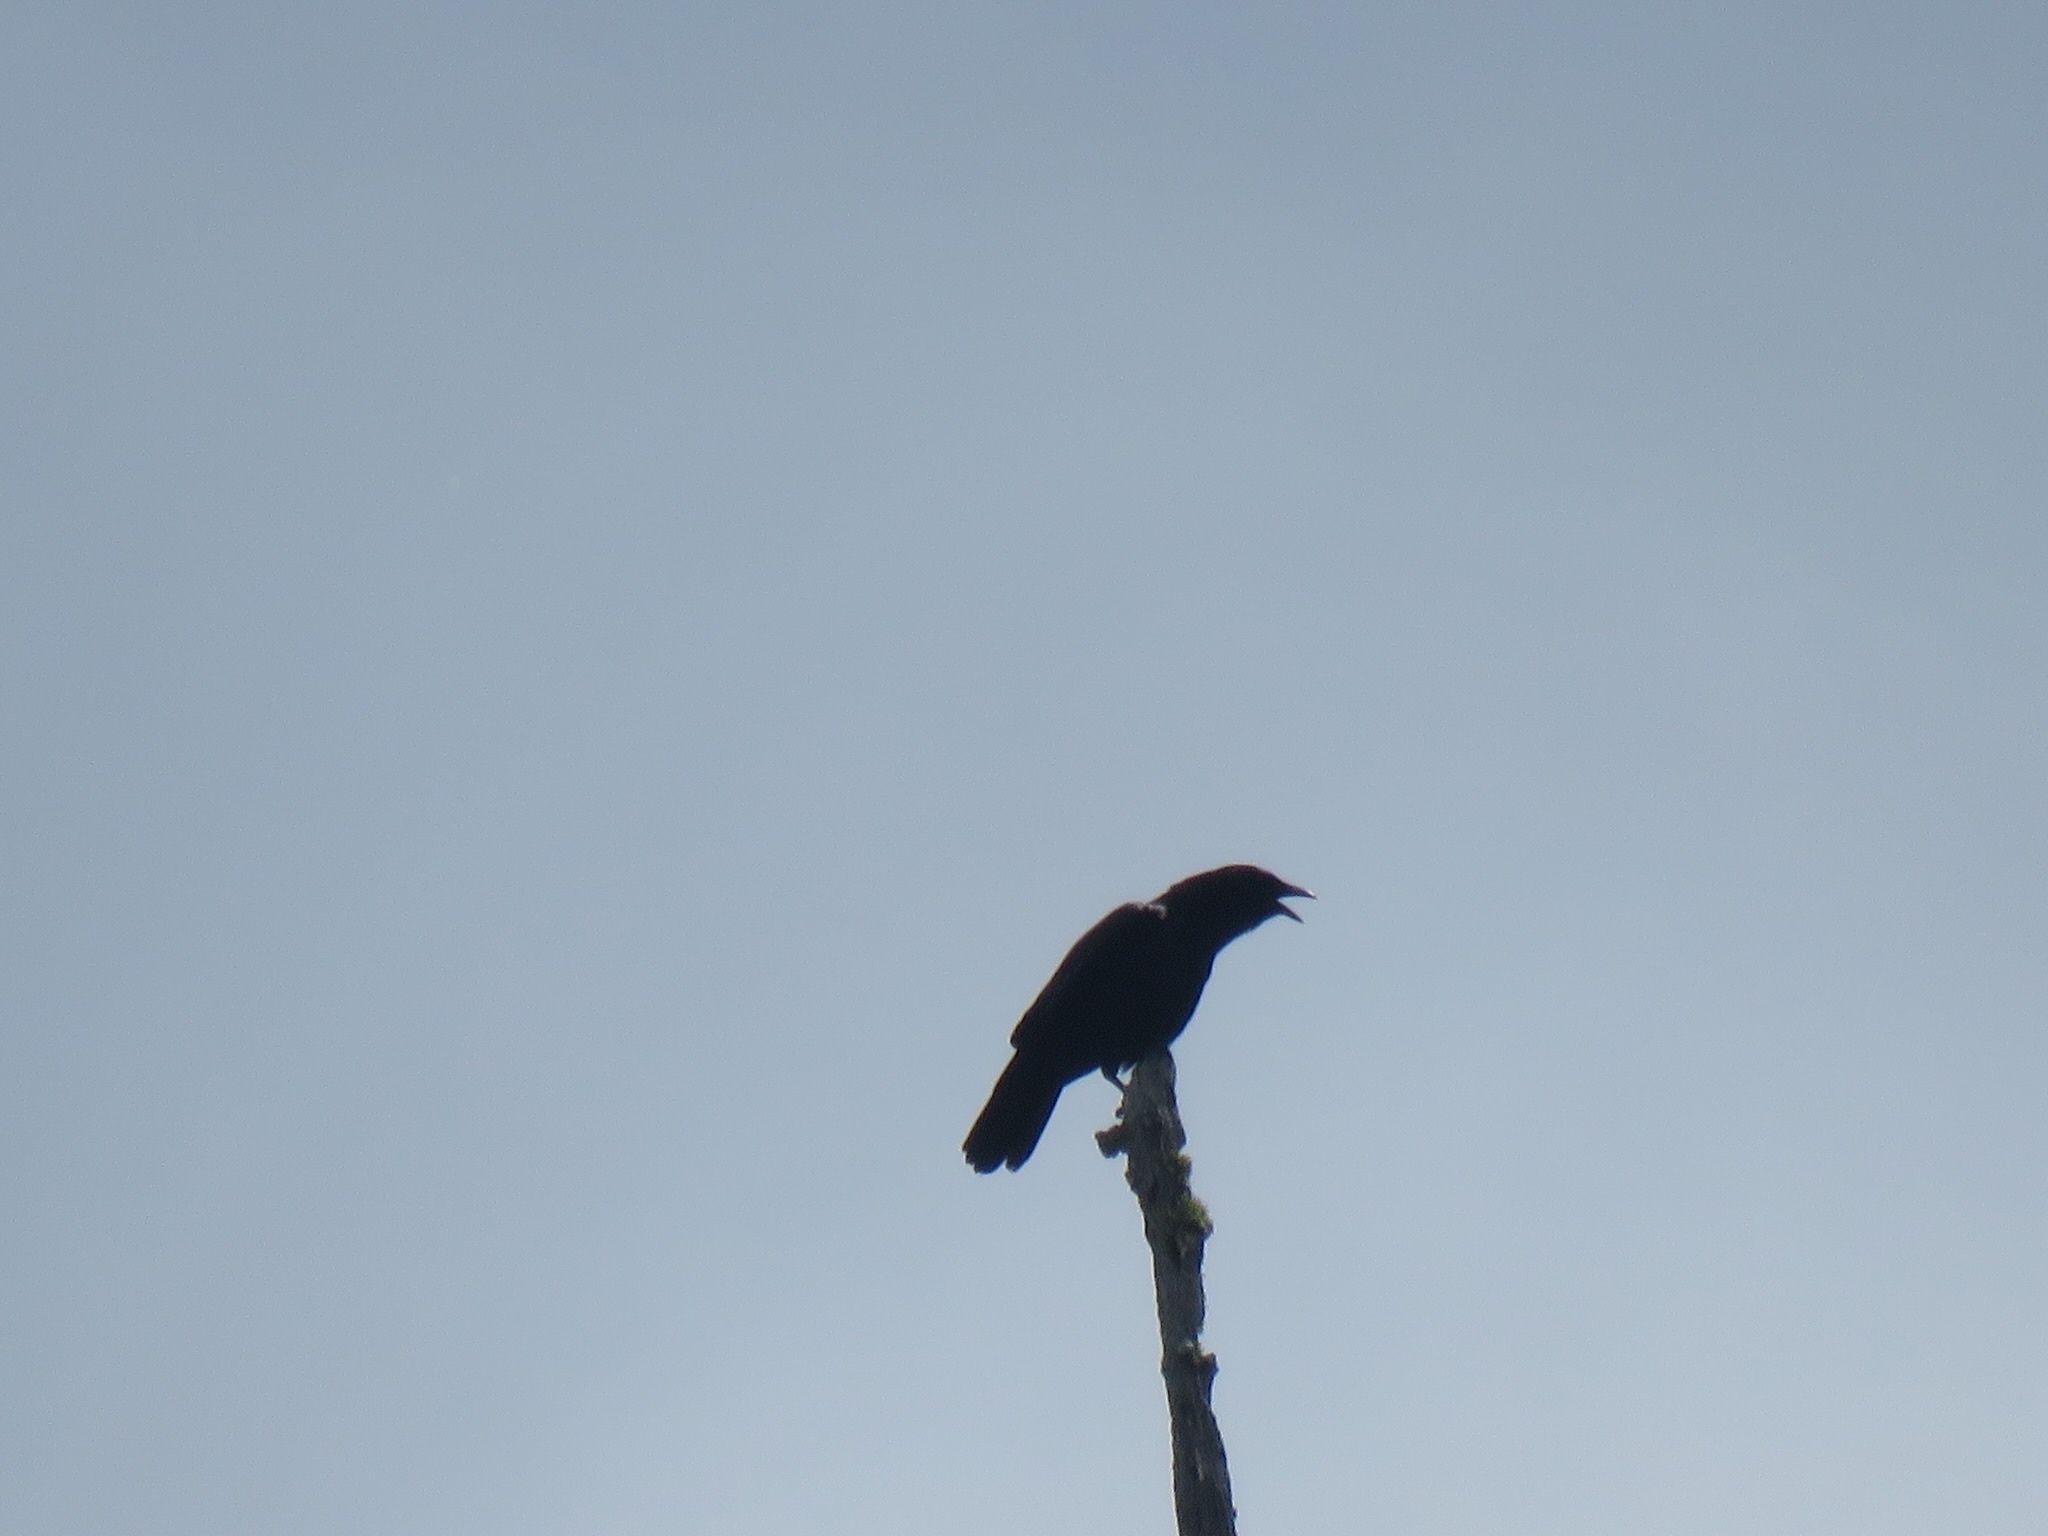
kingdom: Animalia
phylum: Chordata
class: Aves
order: Passeriformes
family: Corvidae
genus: Corvus
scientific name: Corvus brachyrhynchos
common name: American crow
